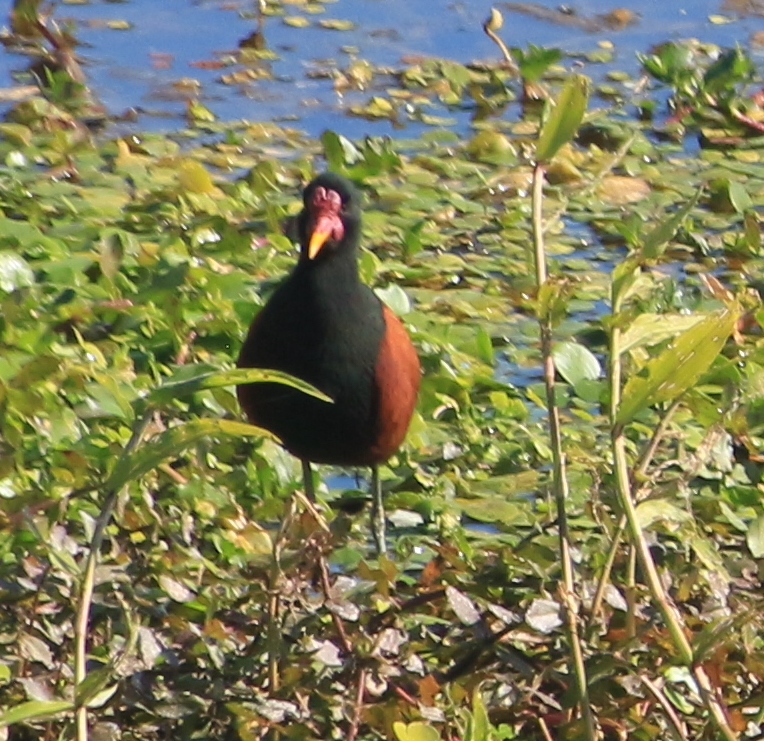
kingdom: Animalia
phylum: Chordata
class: Aves
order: Charadriiformes
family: Jacanidae
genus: Jacana
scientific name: Jacana jacana
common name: Wattled jacana
